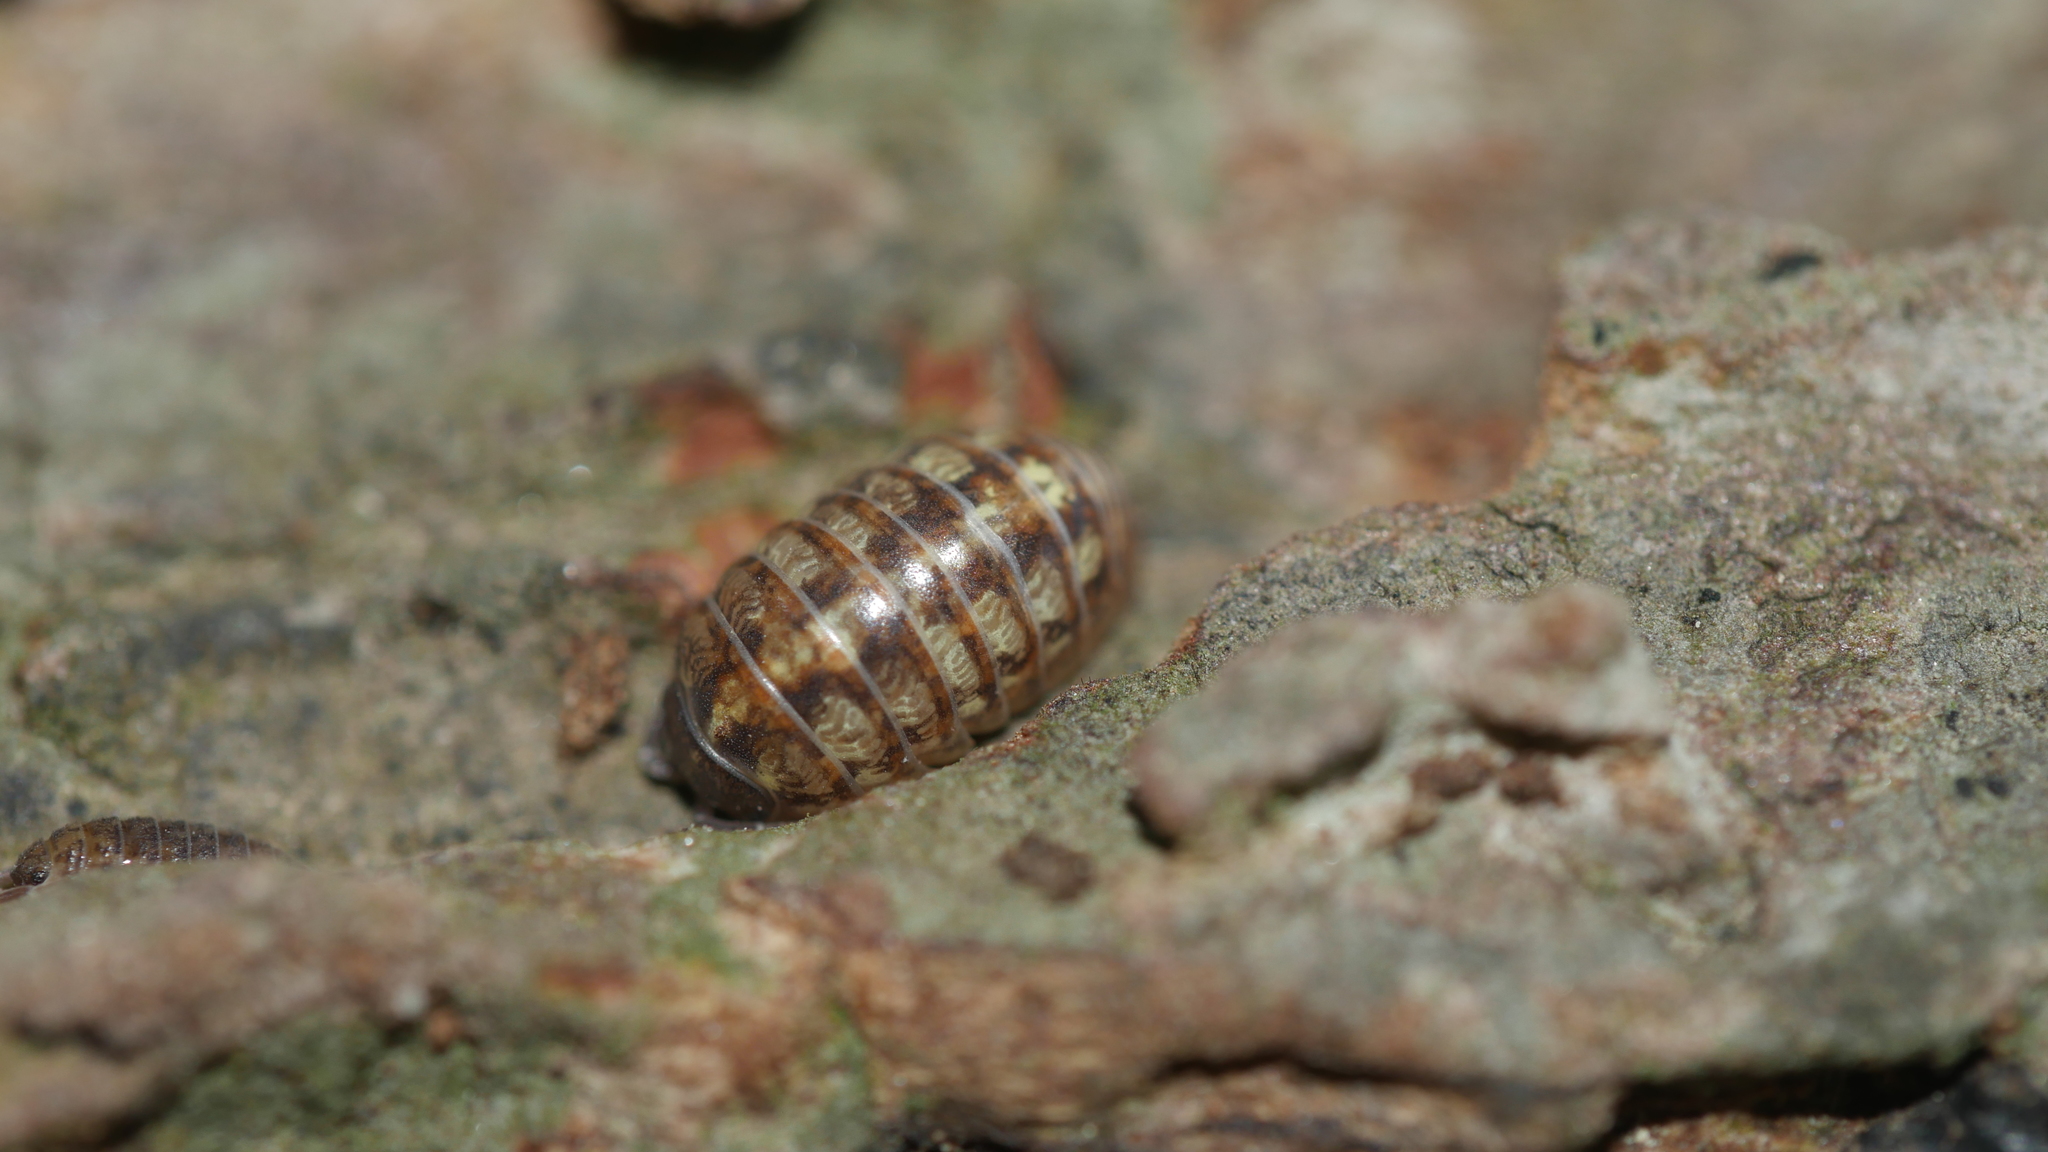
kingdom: Animalia
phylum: Arthropoda
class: Malacostraca
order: Isopoda
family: Armadillidiidae
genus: Armadillidium
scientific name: Armadillidium vulgare
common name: Common pill woodlouse
